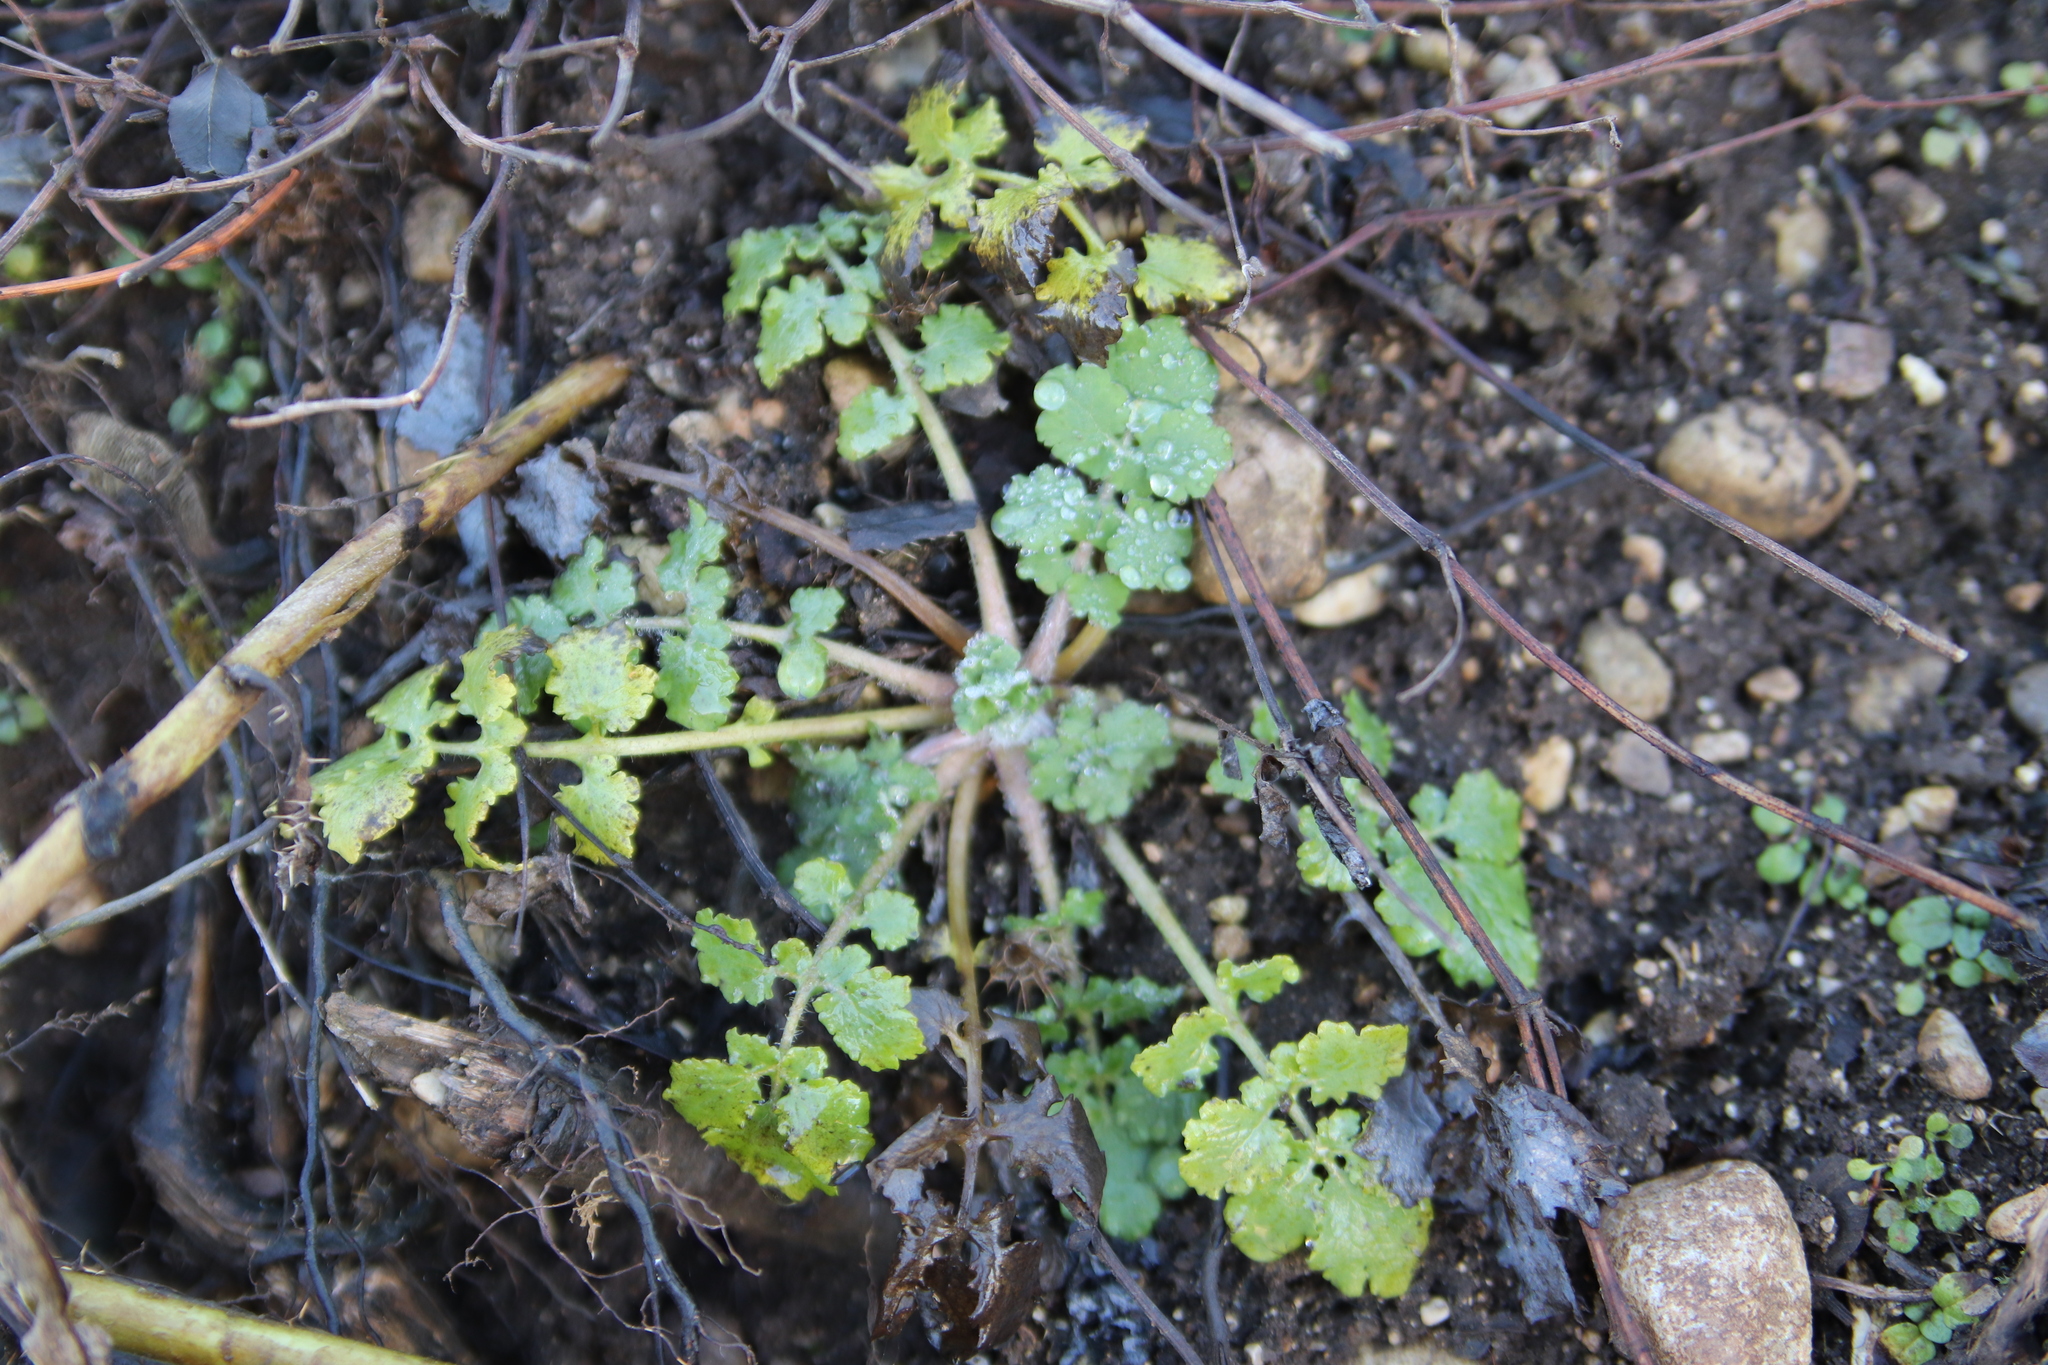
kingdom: Plantae
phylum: Tracheophyta
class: Magnoliopsida
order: Ranunculales
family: Papaveraceae
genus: Chelidonium
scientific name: Chelidonium majus
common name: Greater celandine
